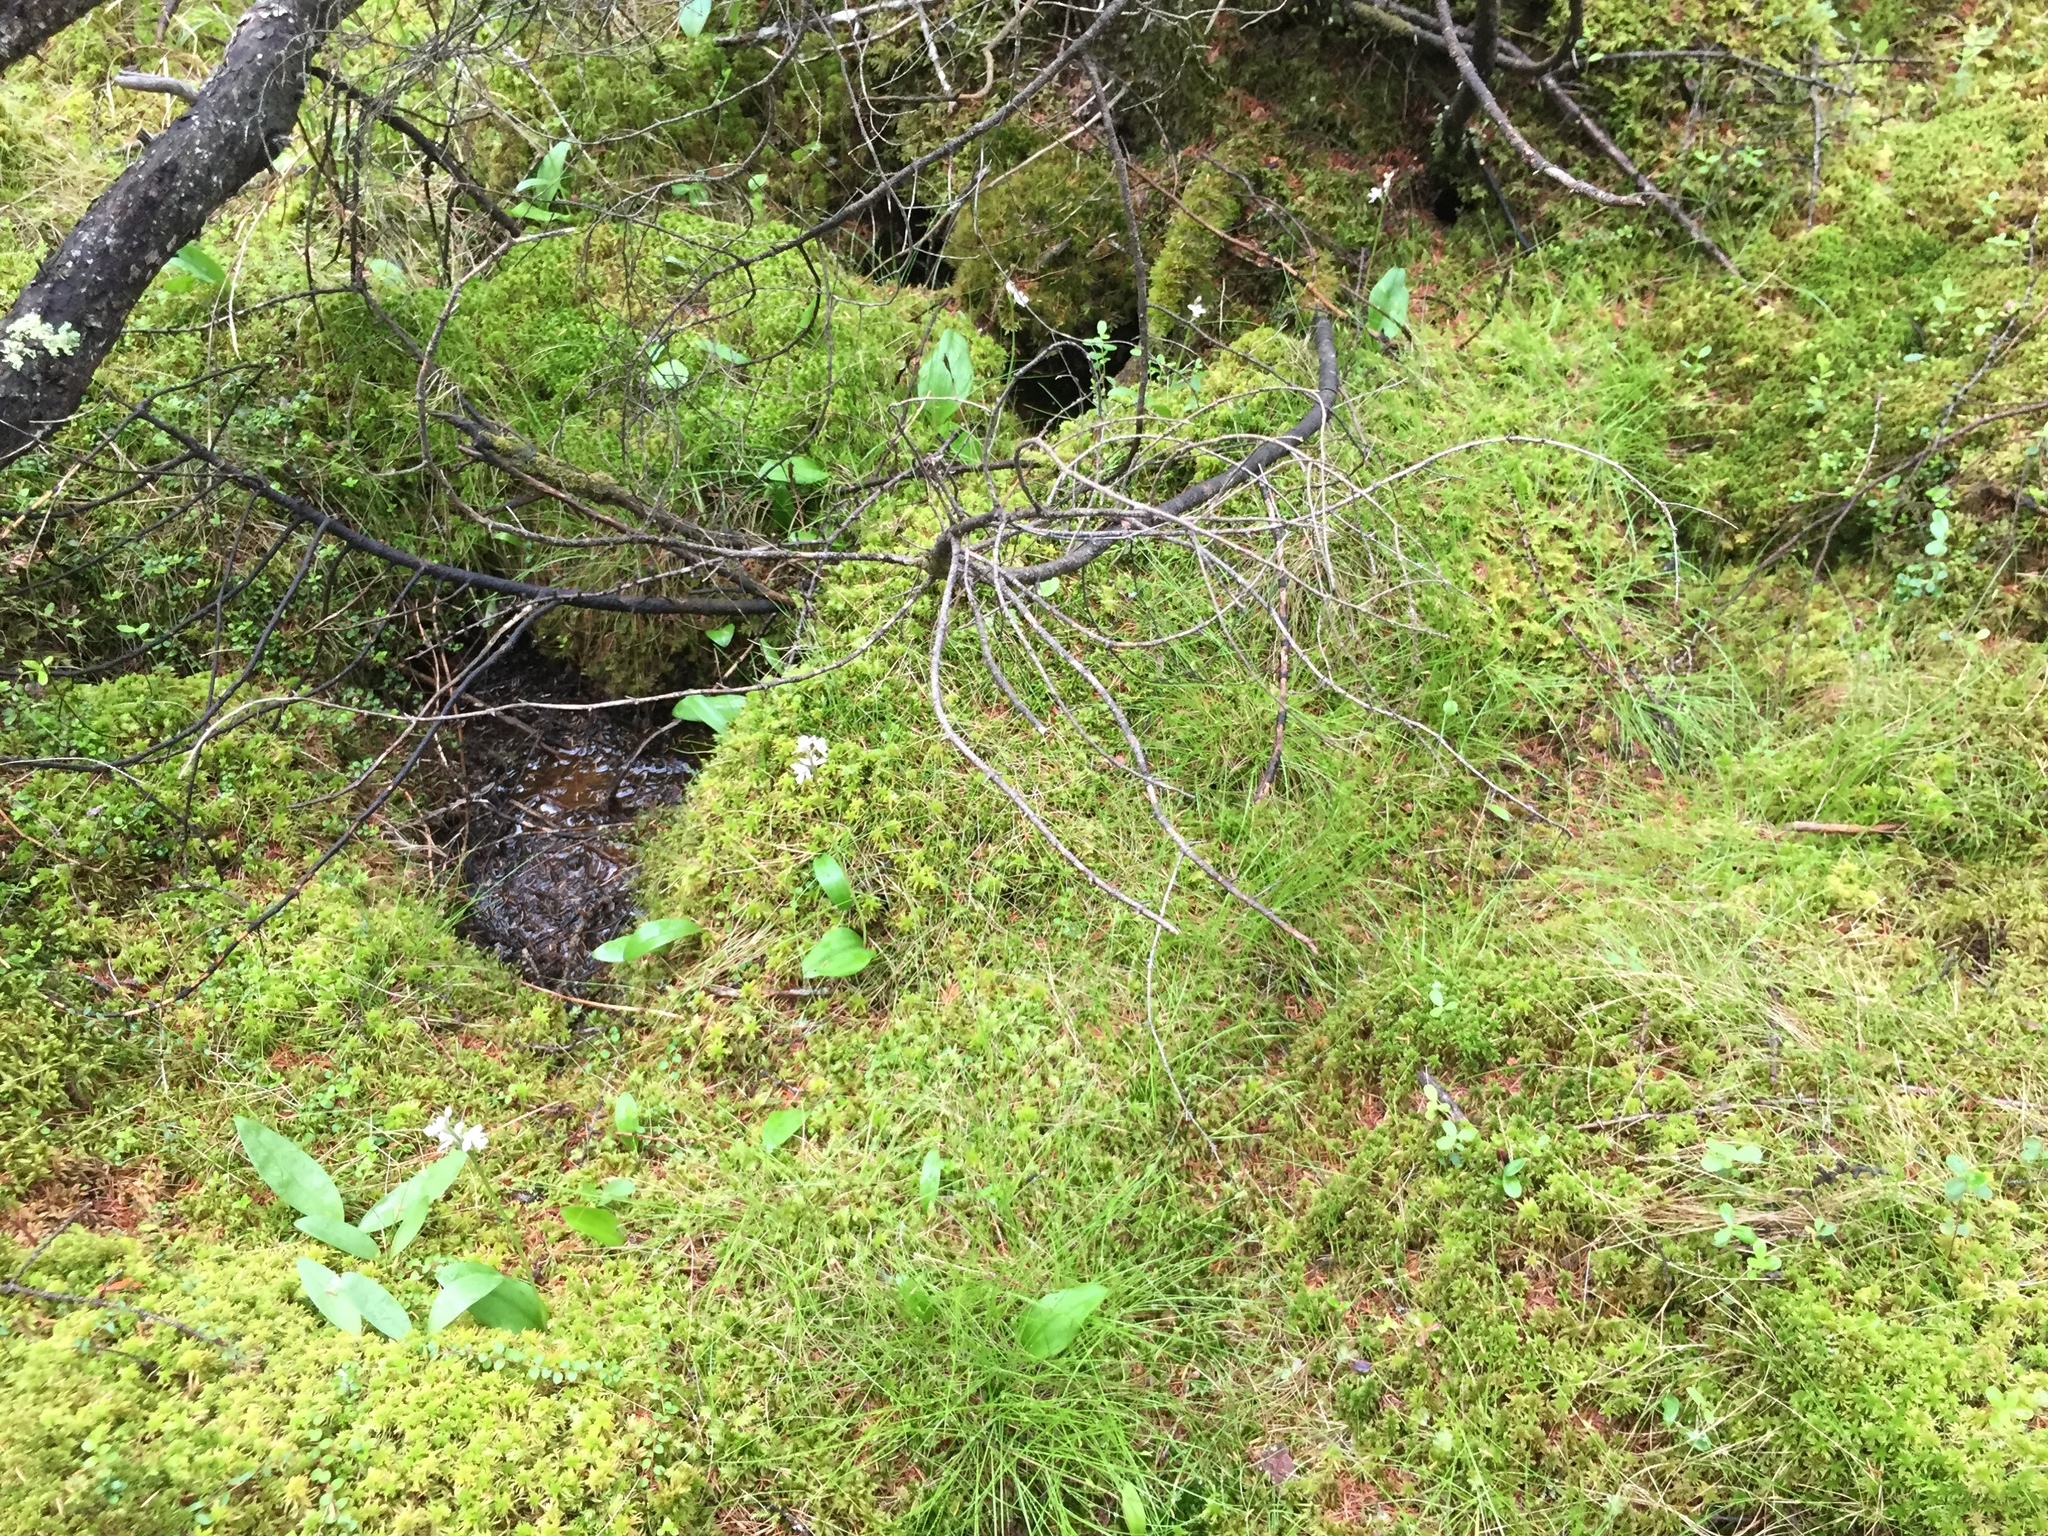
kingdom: Plantae
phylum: Tracheophyta
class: Liliopsida
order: Asparagales
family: Orchidaceae
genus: Galearis
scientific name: Galearis rotundifolia
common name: One-leaved orchis
